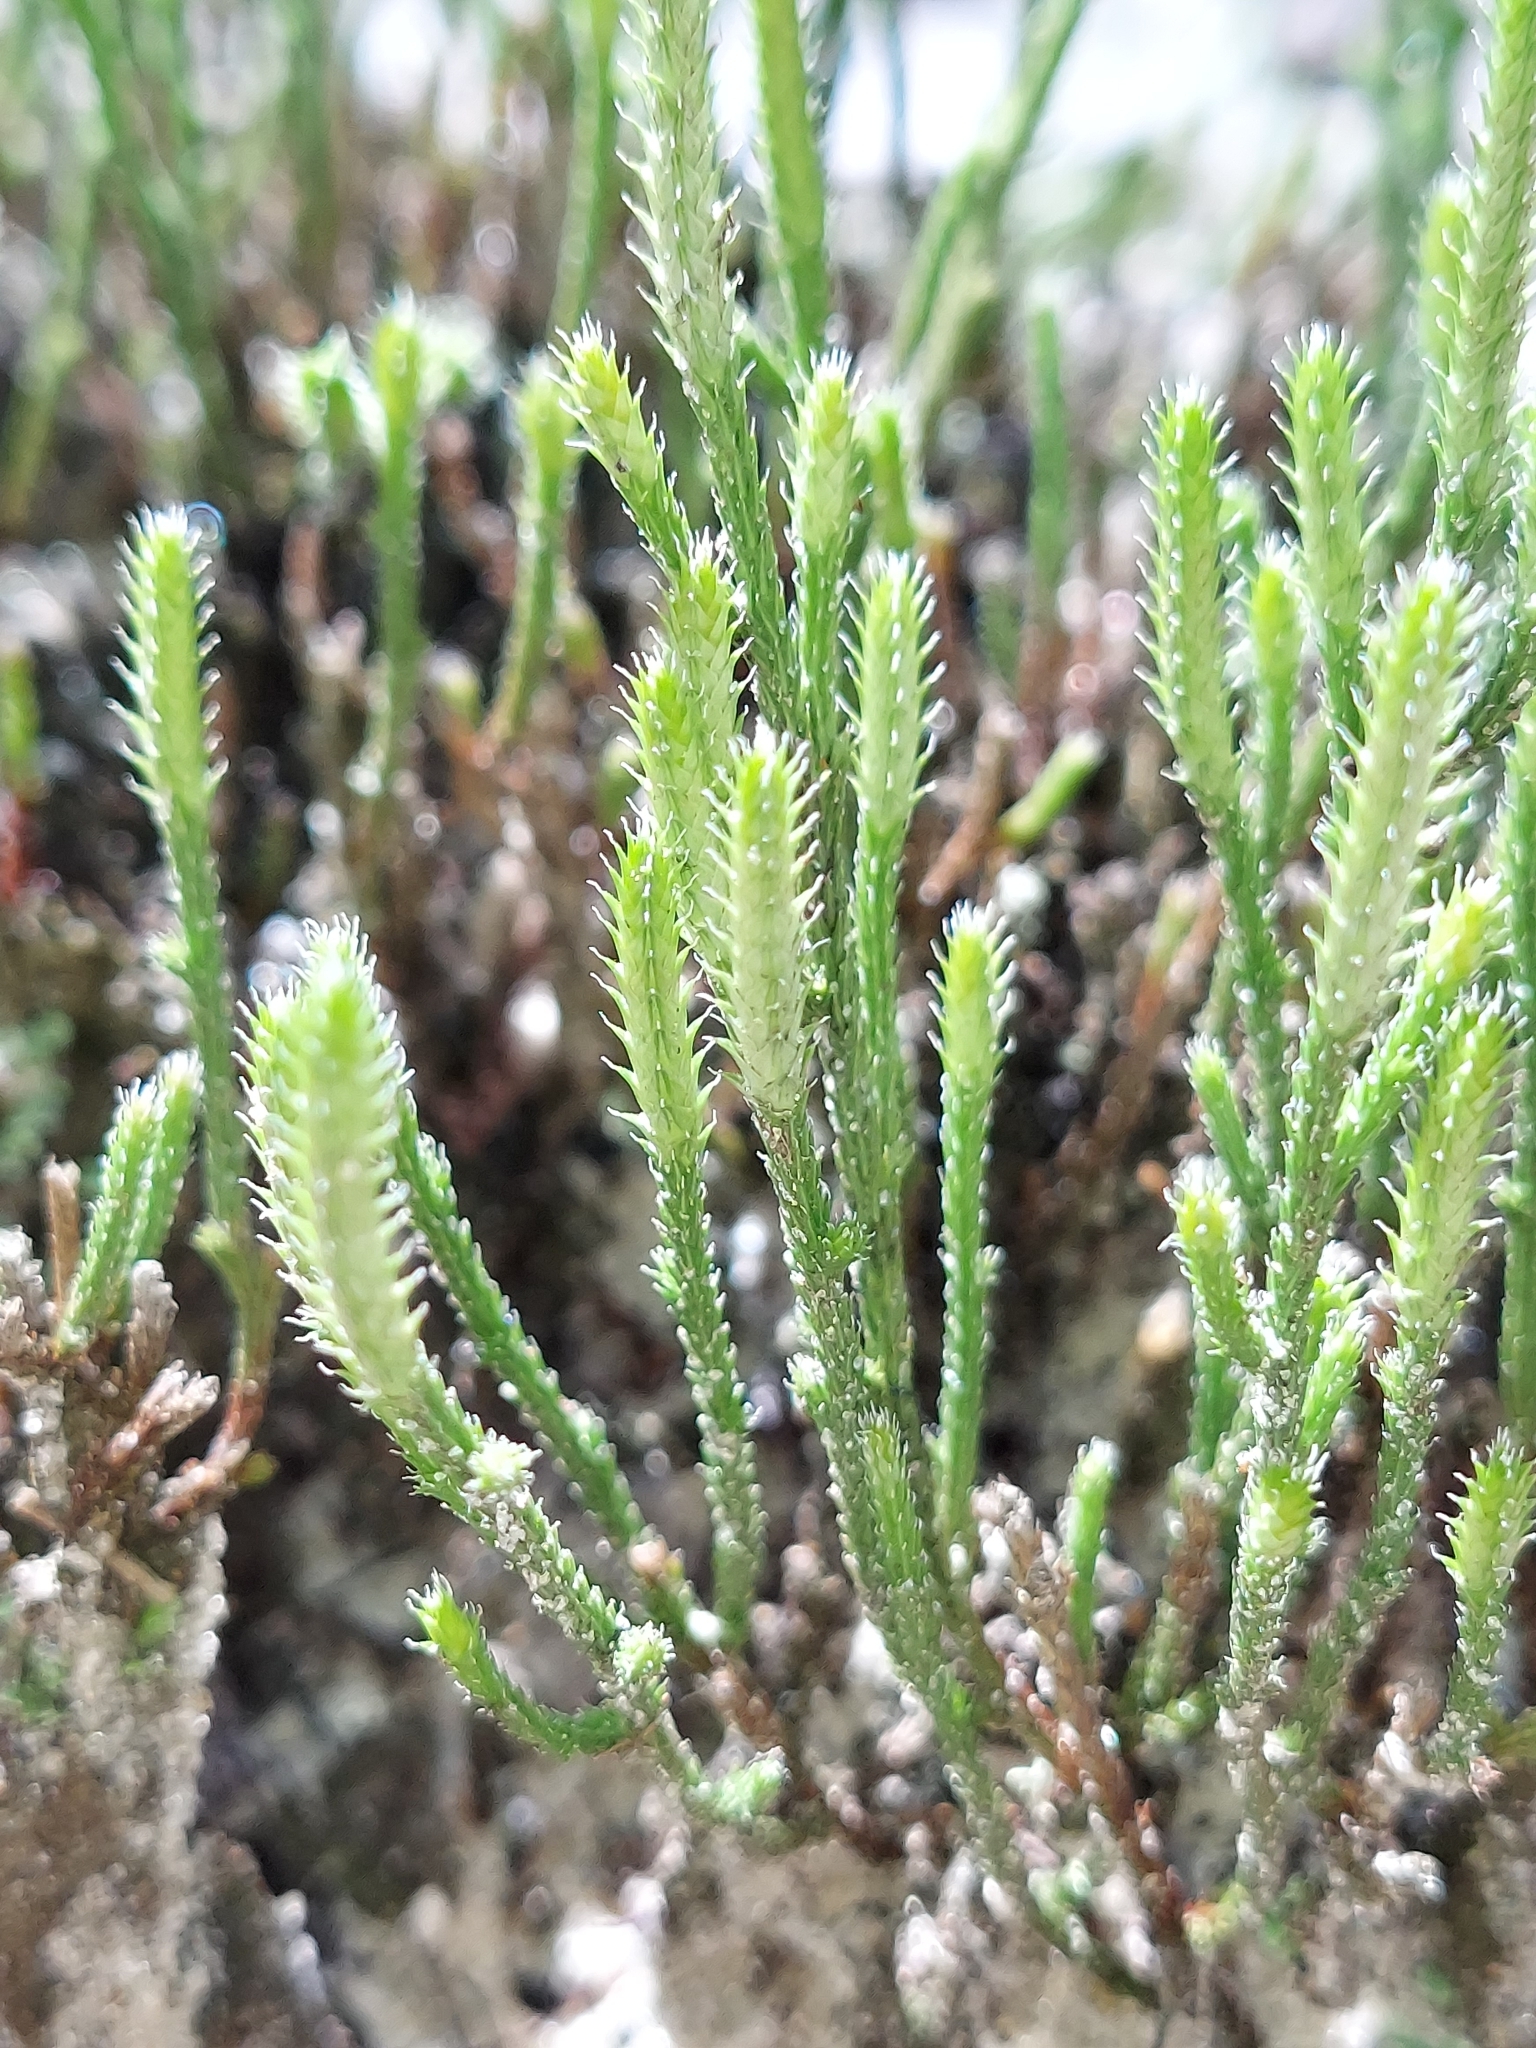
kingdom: Plantae
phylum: Tracheophyta
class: Lycopodiopsida
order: Selaginellales
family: Selaginellaceae
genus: Selaginella
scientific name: Selaginella arenicola
